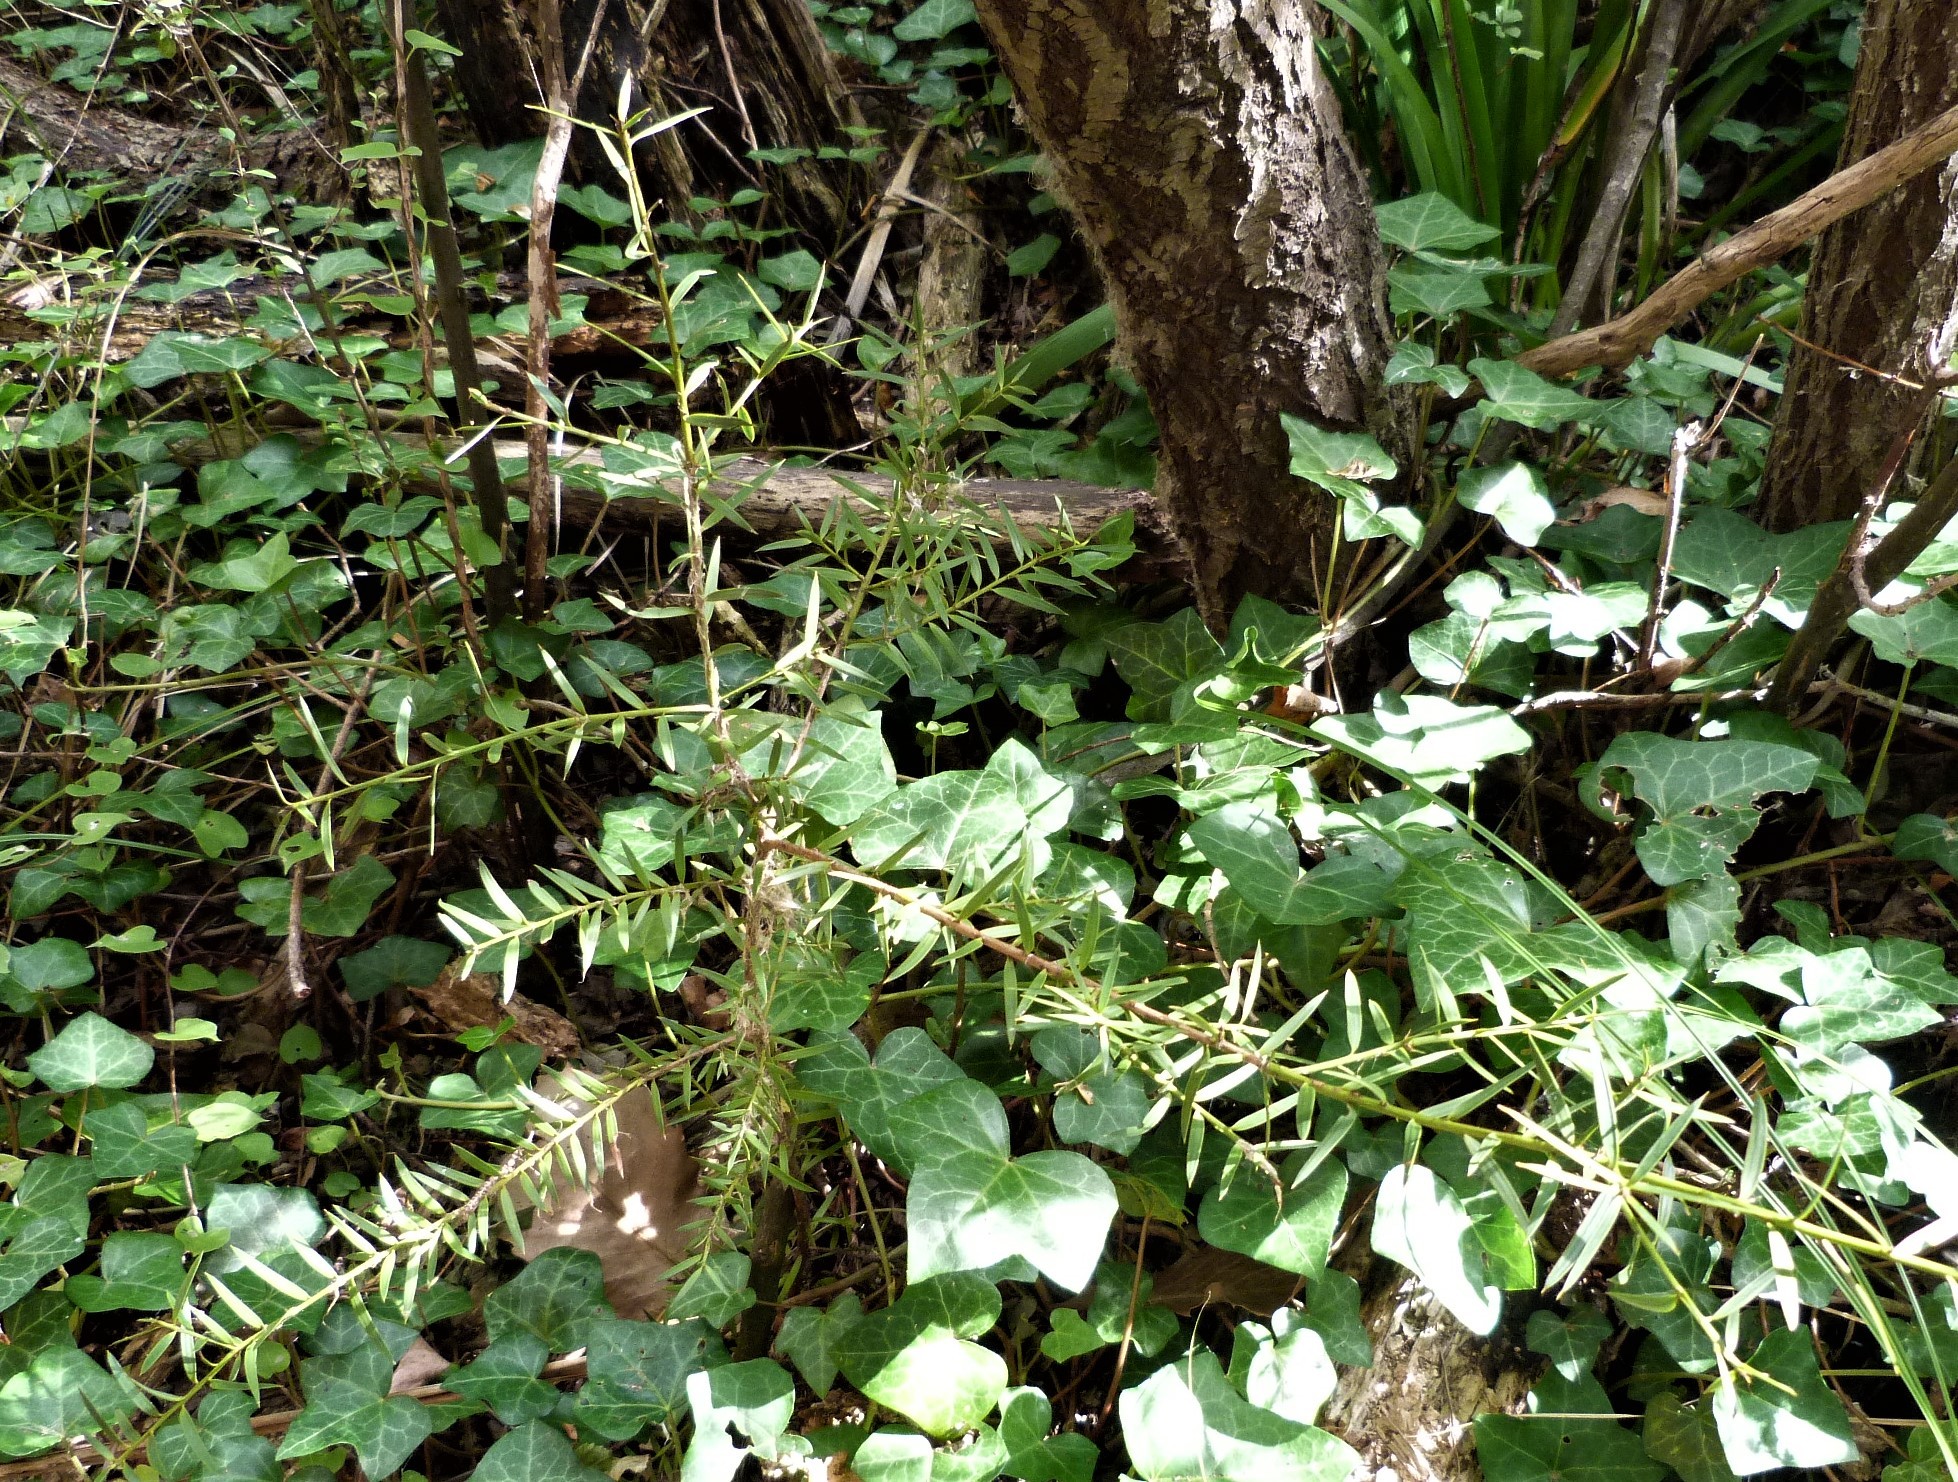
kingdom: Plantae
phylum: Tracheophyta
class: Magnoliopsida
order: Apiales
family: Araliaceae
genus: Hedera
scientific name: Hedera helix
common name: Ivy
